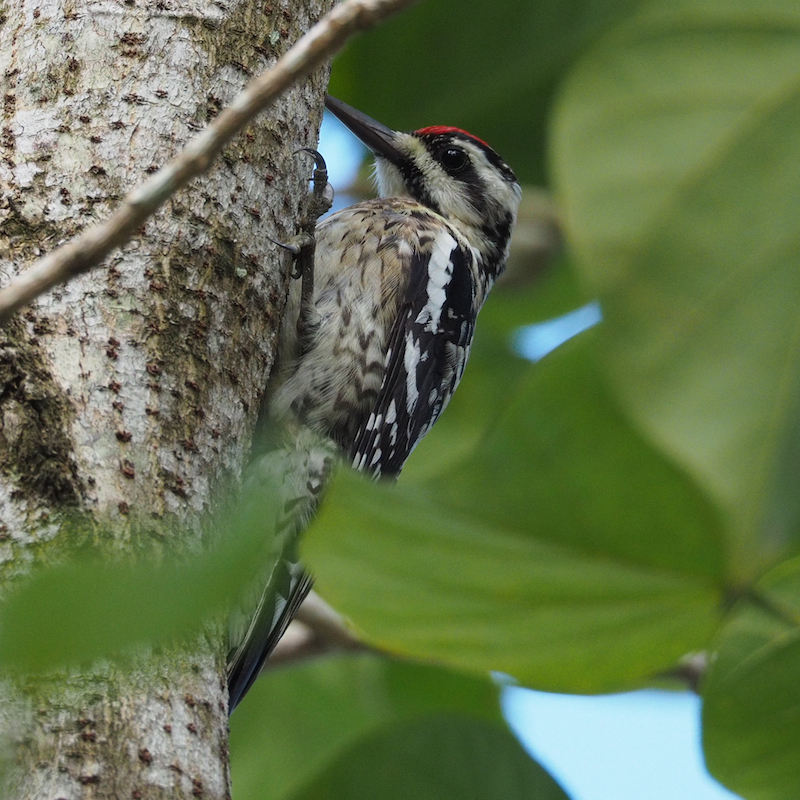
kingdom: Animalia
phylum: Chordata
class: Aves
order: Piciformes
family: Picidae
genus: Sphyrapicus
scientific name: Sphyrapicus varius
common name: Yellow-bellied sapsucker
